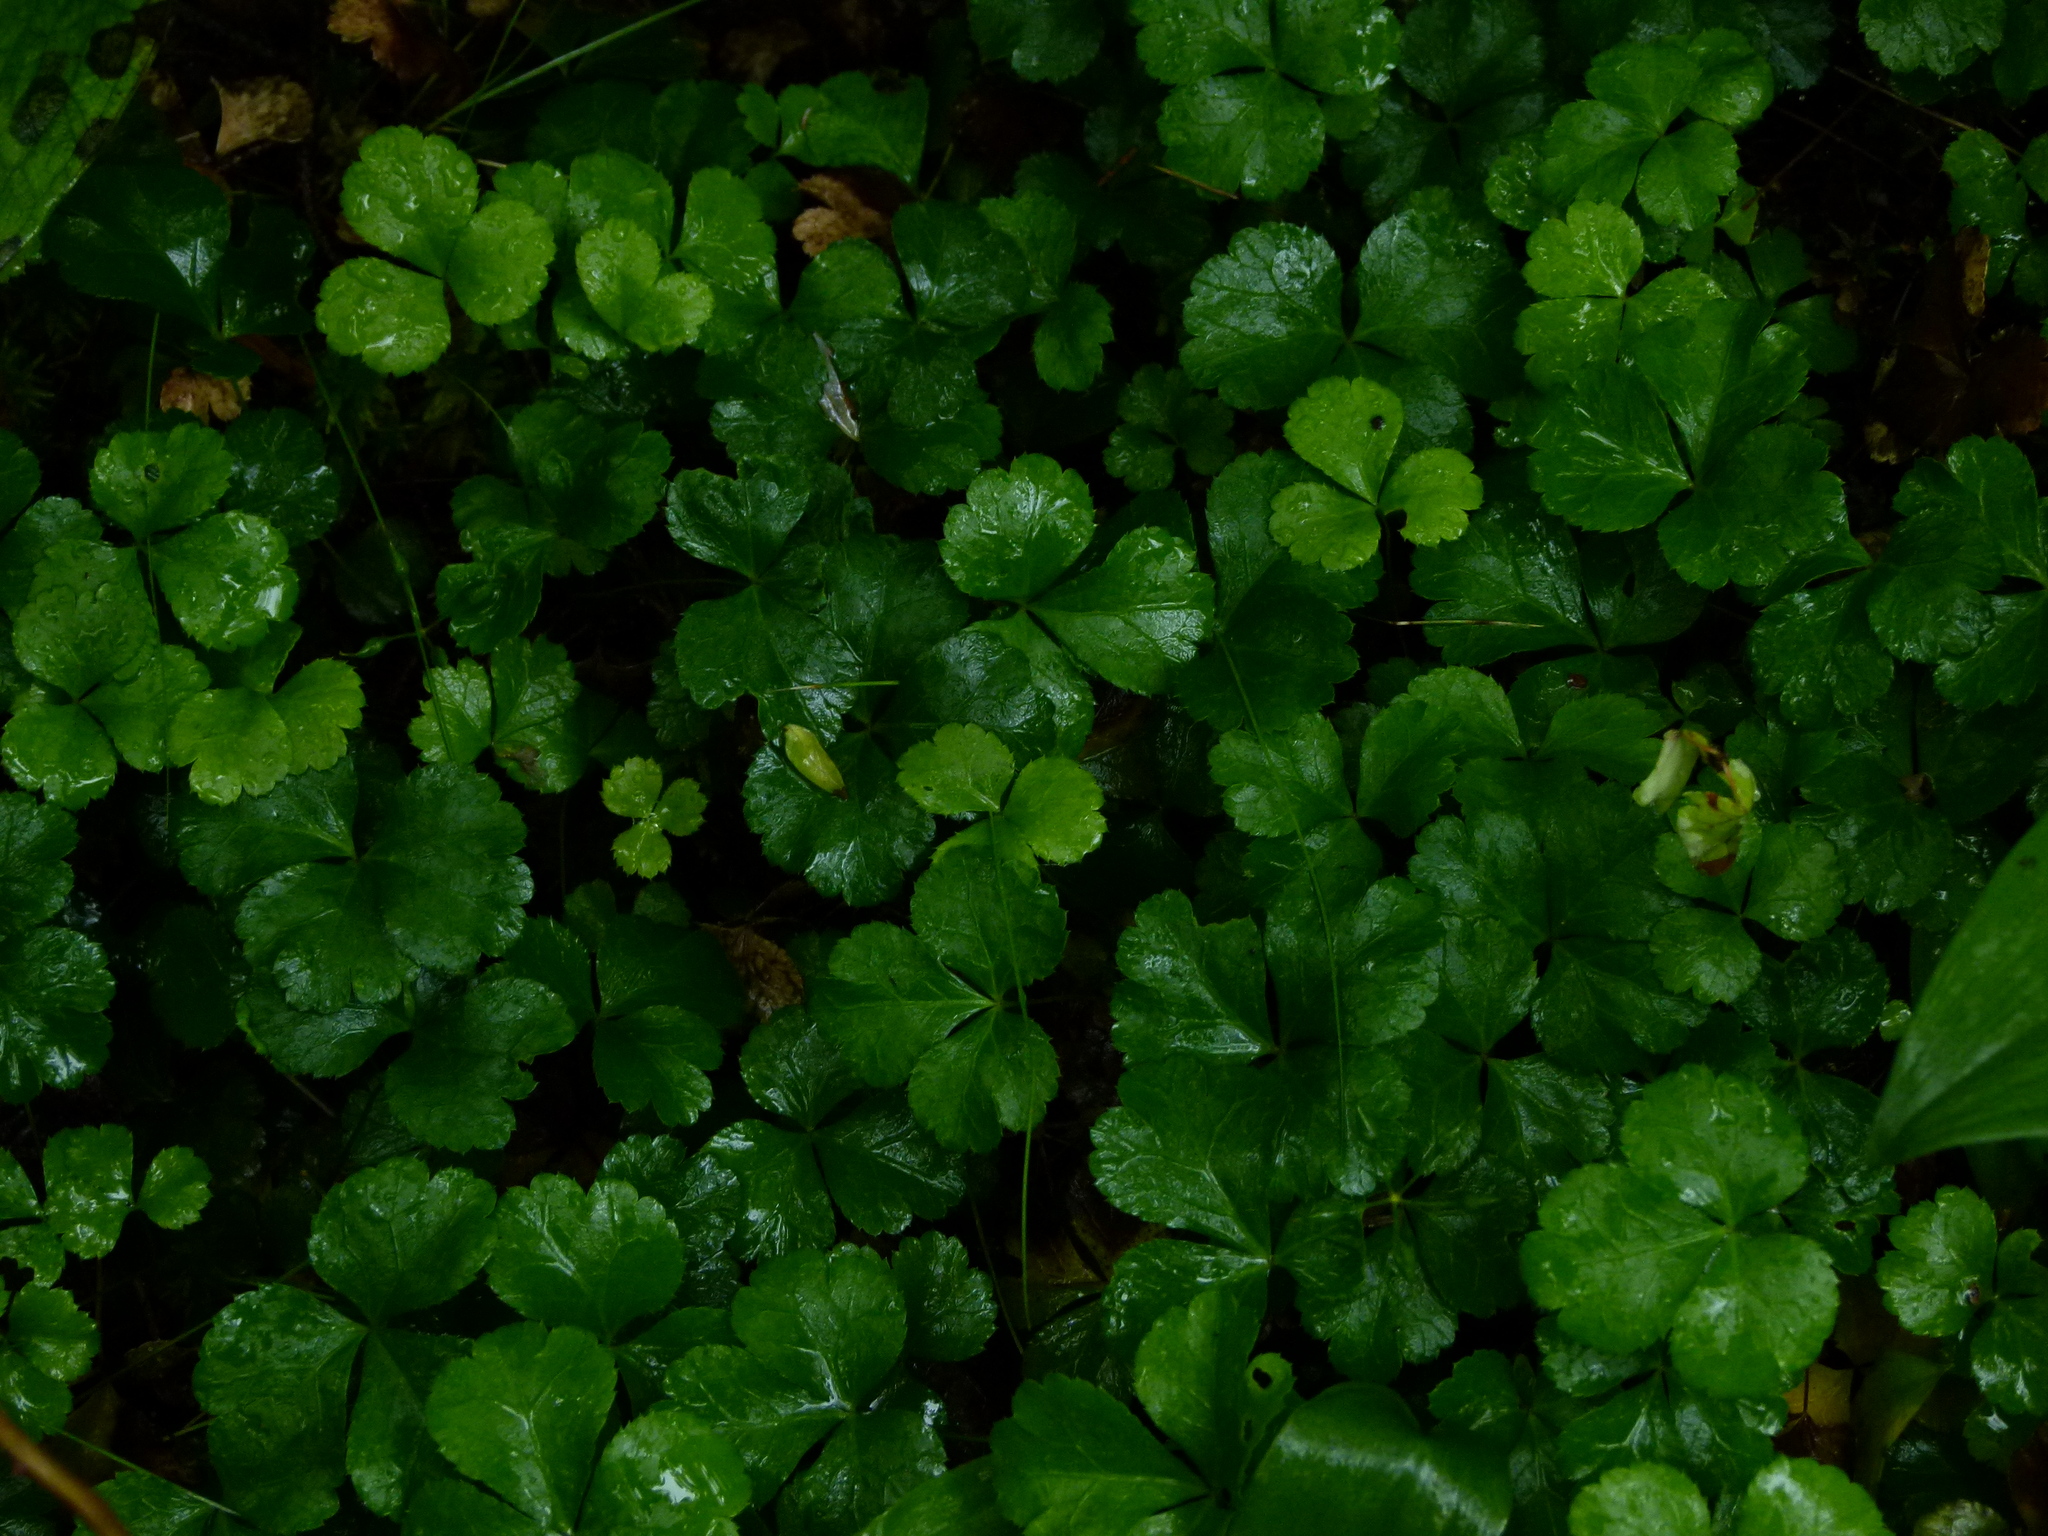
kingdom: Plantae
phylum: Tracheophyta
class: Magnoliopsida
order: Ranunculales
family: Ranunculaceae
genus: Coptis
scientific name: Coptis trifolia
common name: Canker-root
